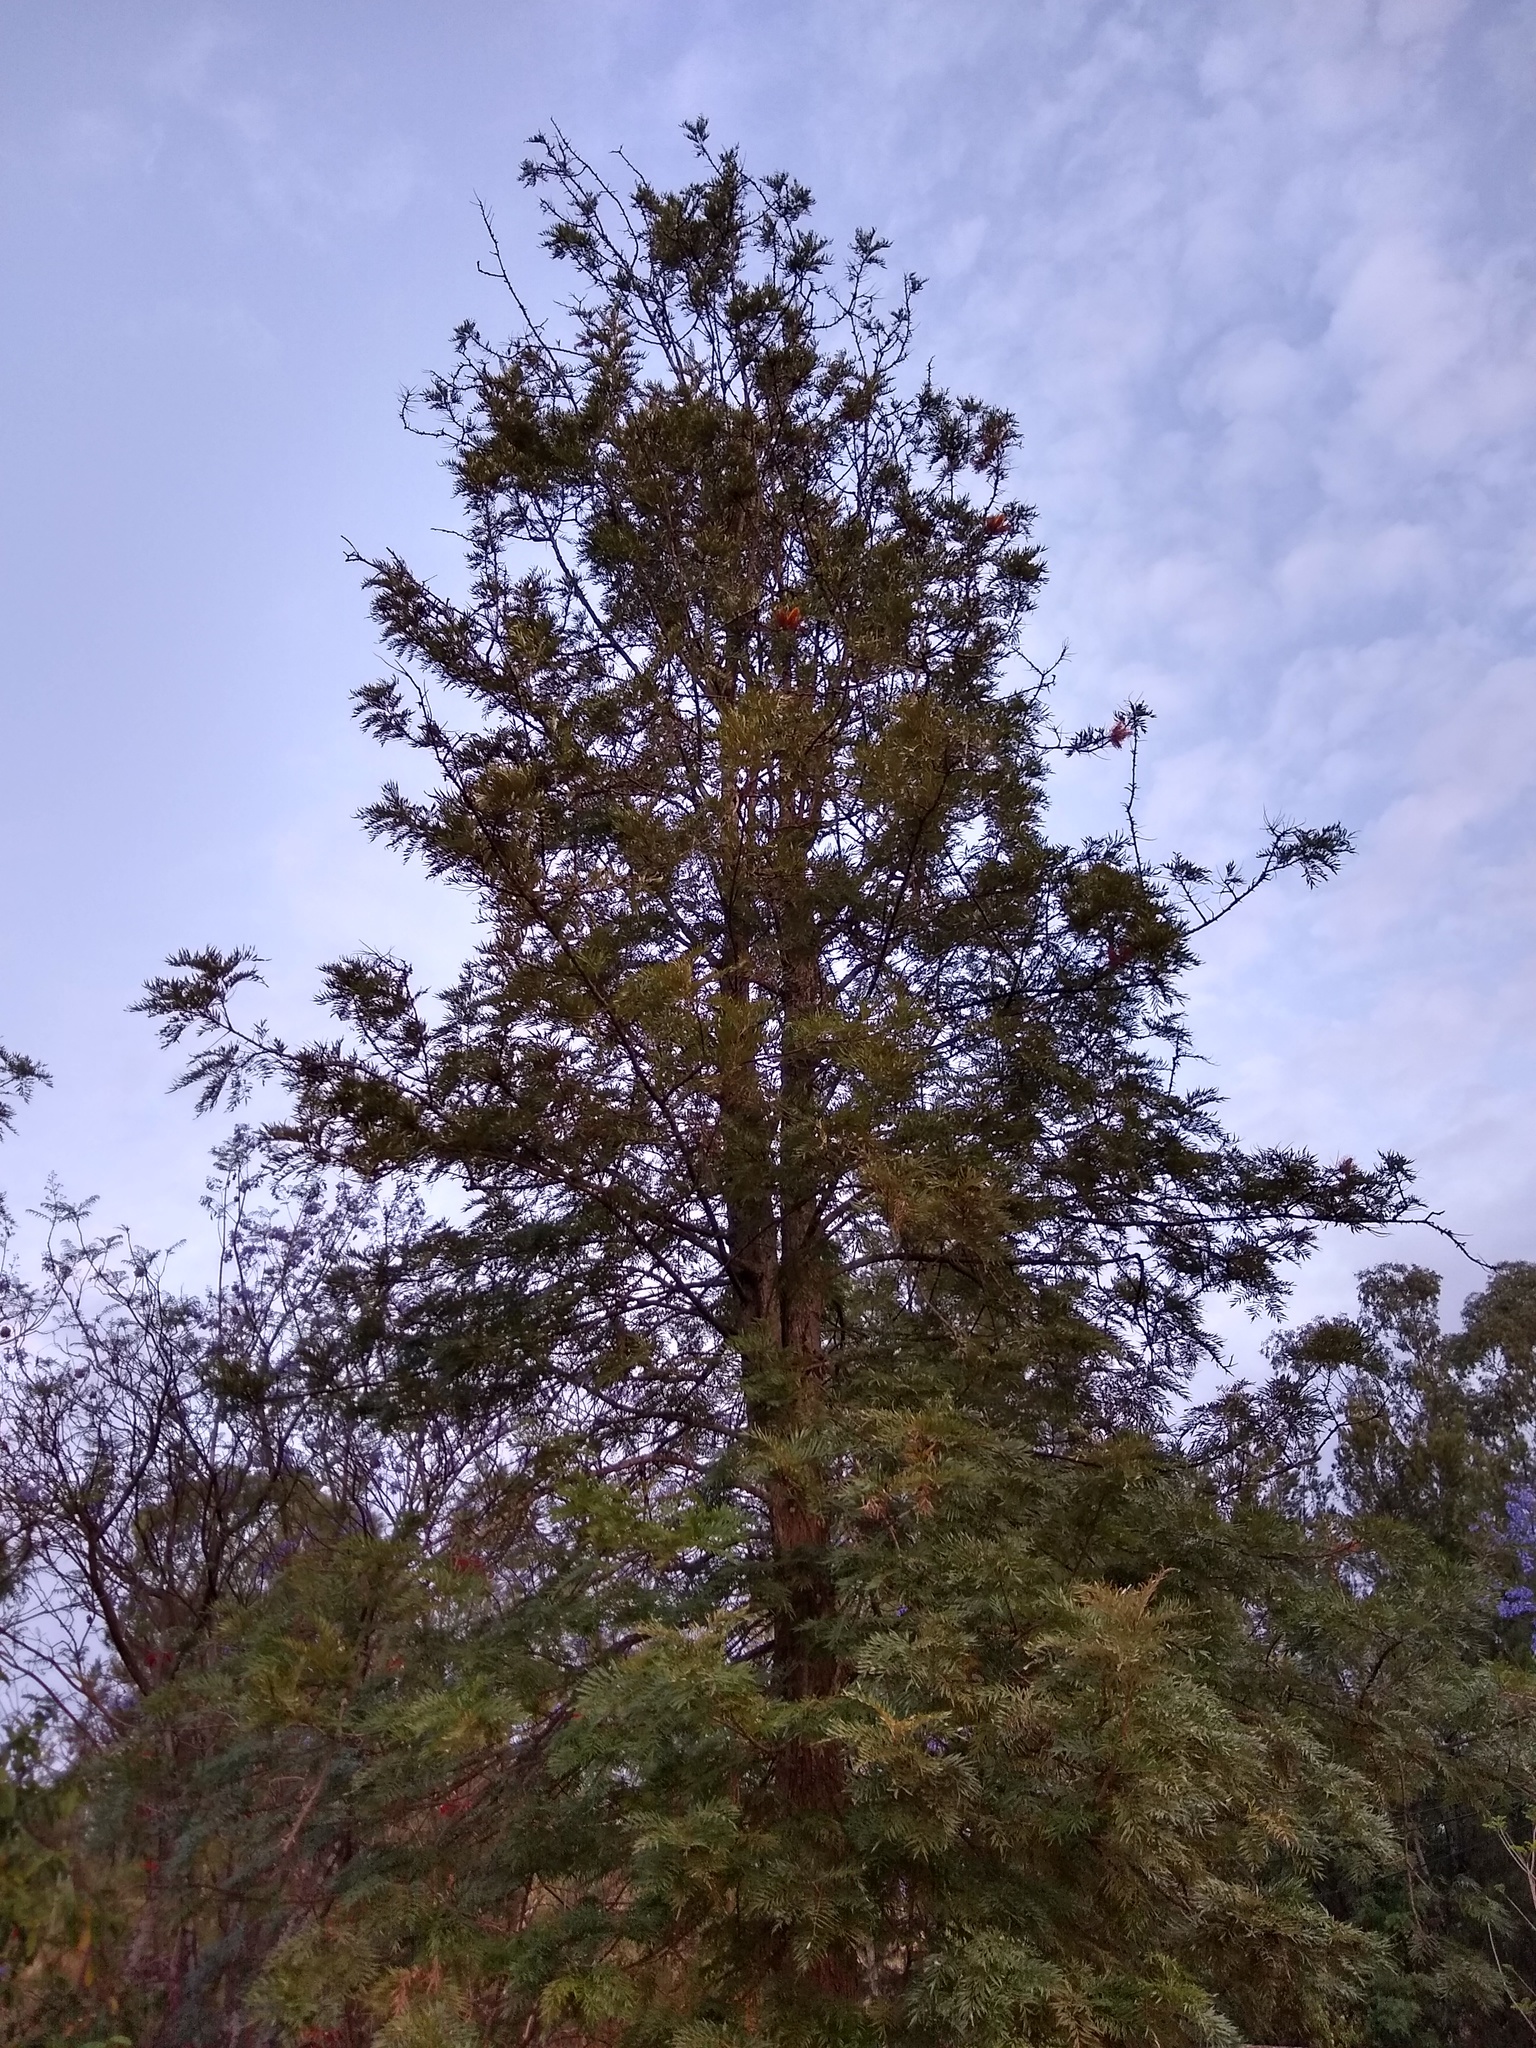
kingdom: Plantae
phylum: Tracheophyta
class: Magnoliopsida
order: Proteales
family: Proteaceae
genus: Grevillea
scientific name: Grevillea robusta
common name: Silkoak
